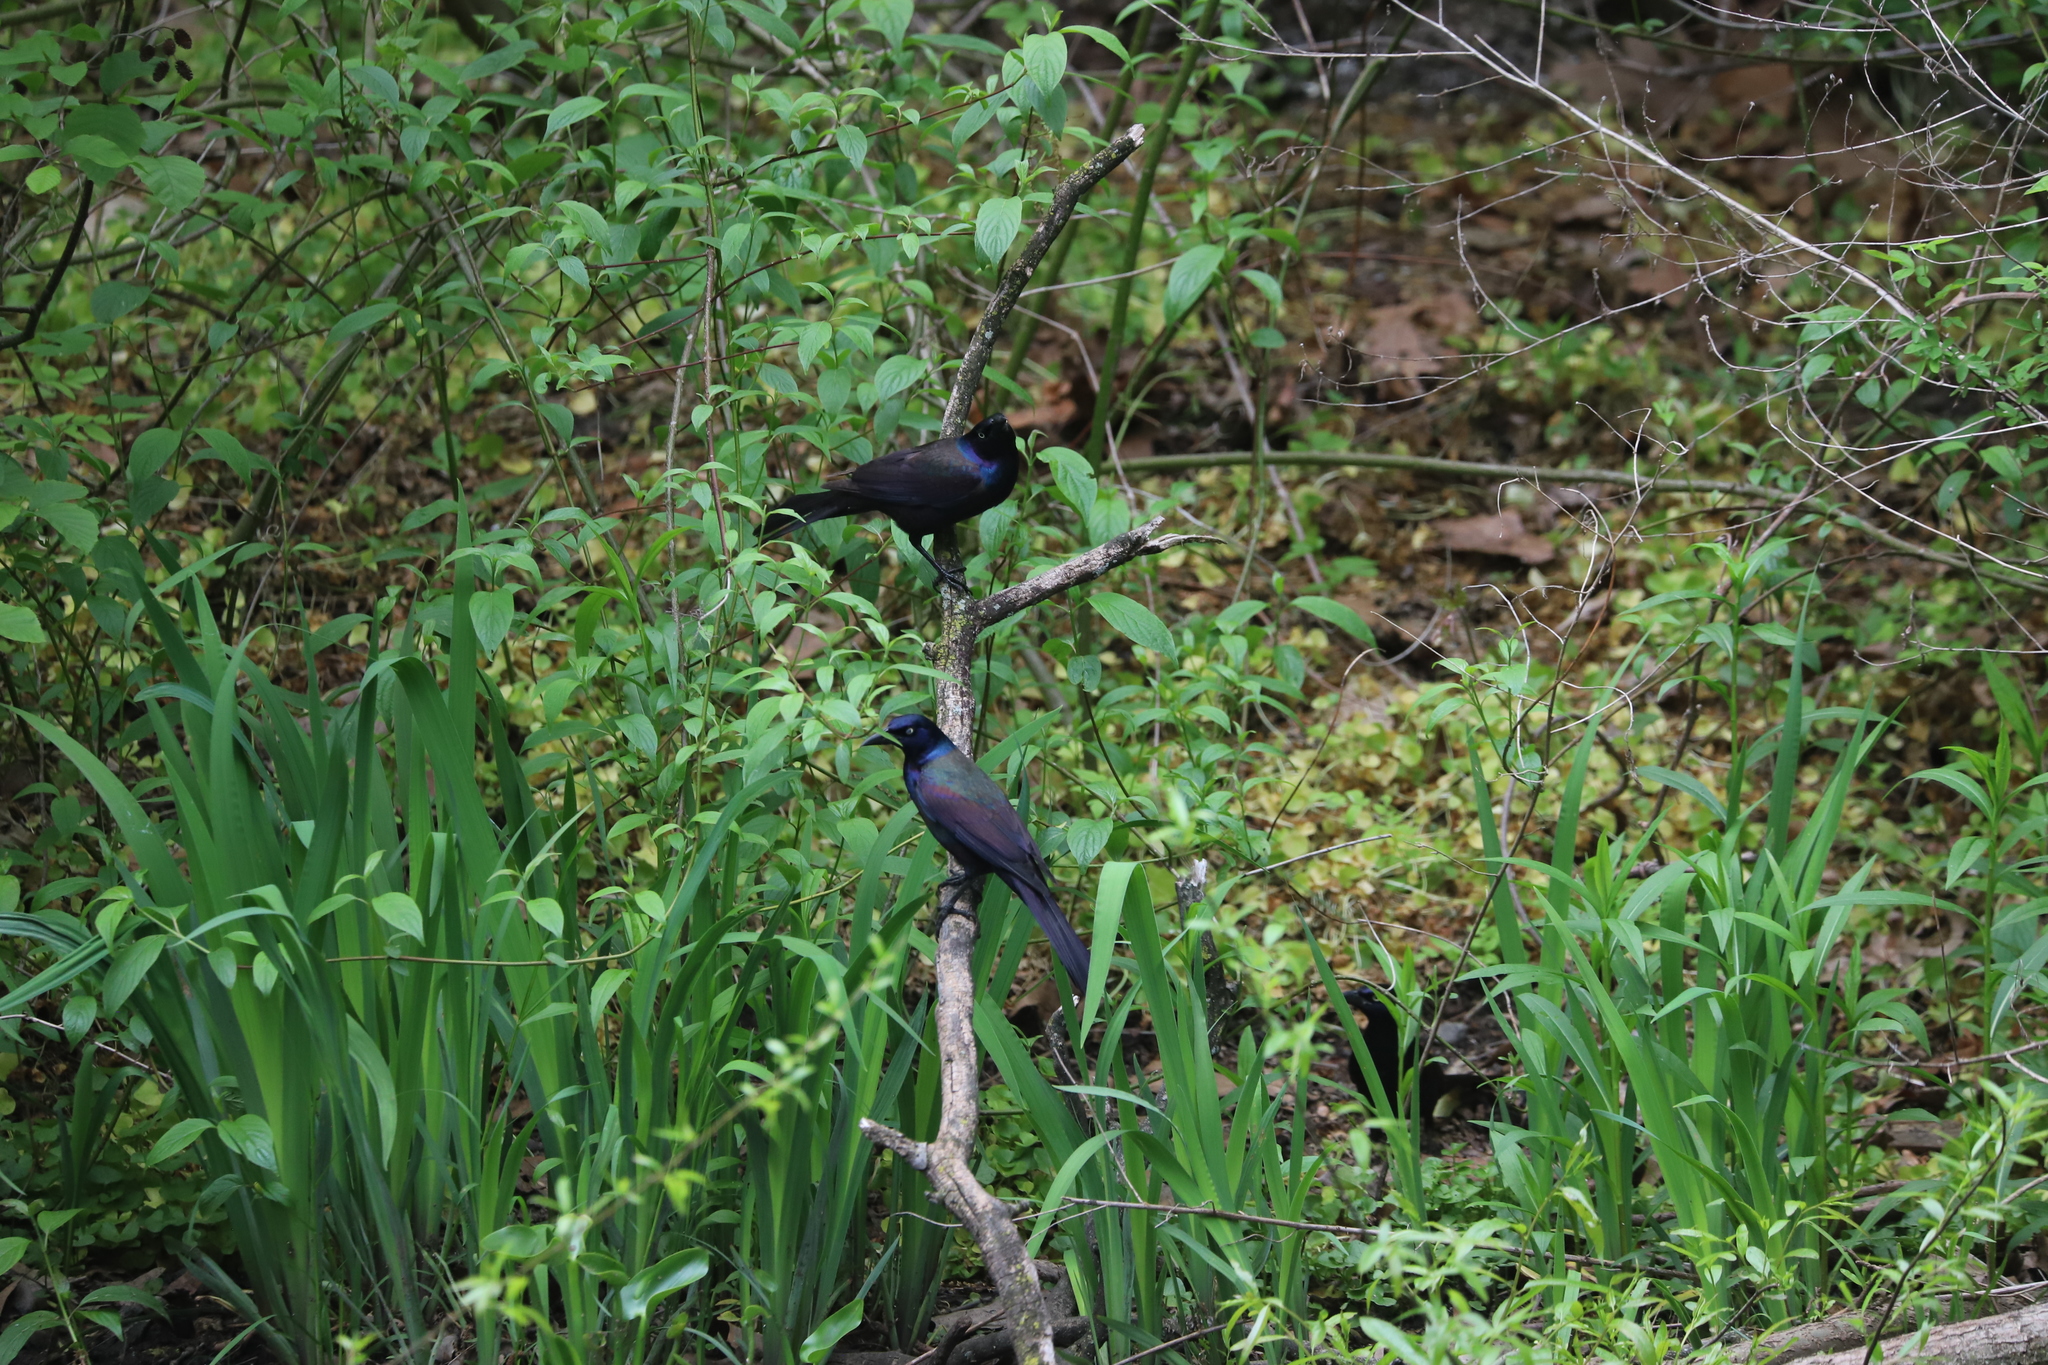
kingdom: Animalia
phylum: Chordata
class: Aves
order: Passeriformes
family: Icteridae
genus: Quiscalus
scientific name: Quiscalus quiscula
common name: Common grackle
